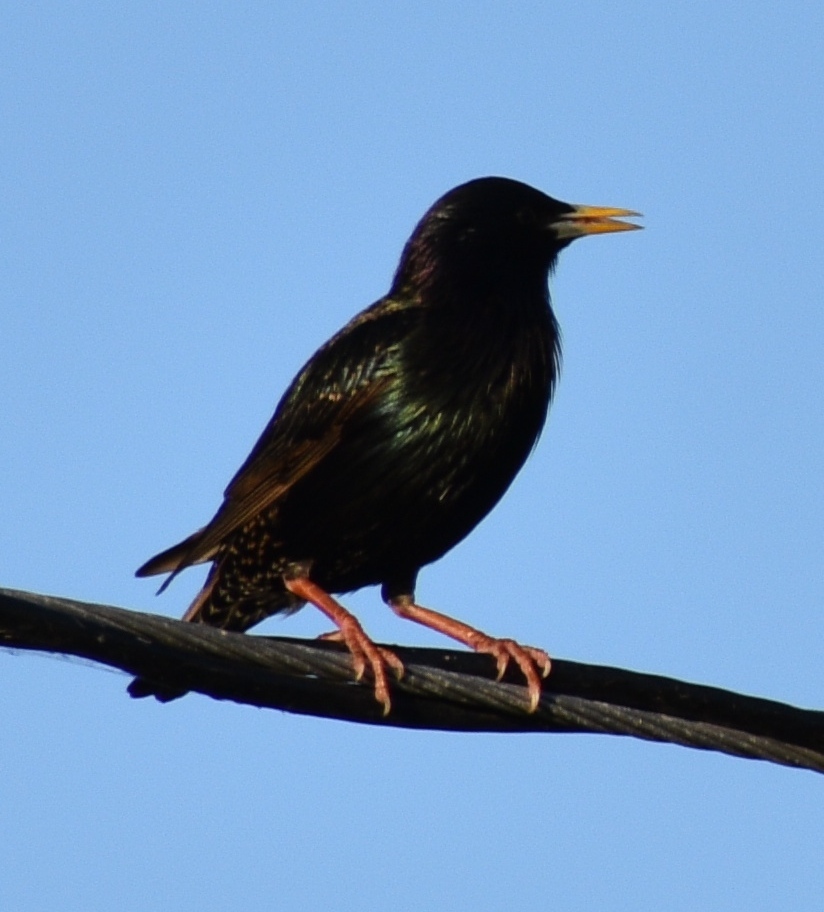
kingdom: Animalia
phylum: Chordata
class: Aves
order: Passeriformes
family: Sturnidae
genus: Sturnus
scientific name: Sturnus vulgaris
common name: Common starling
